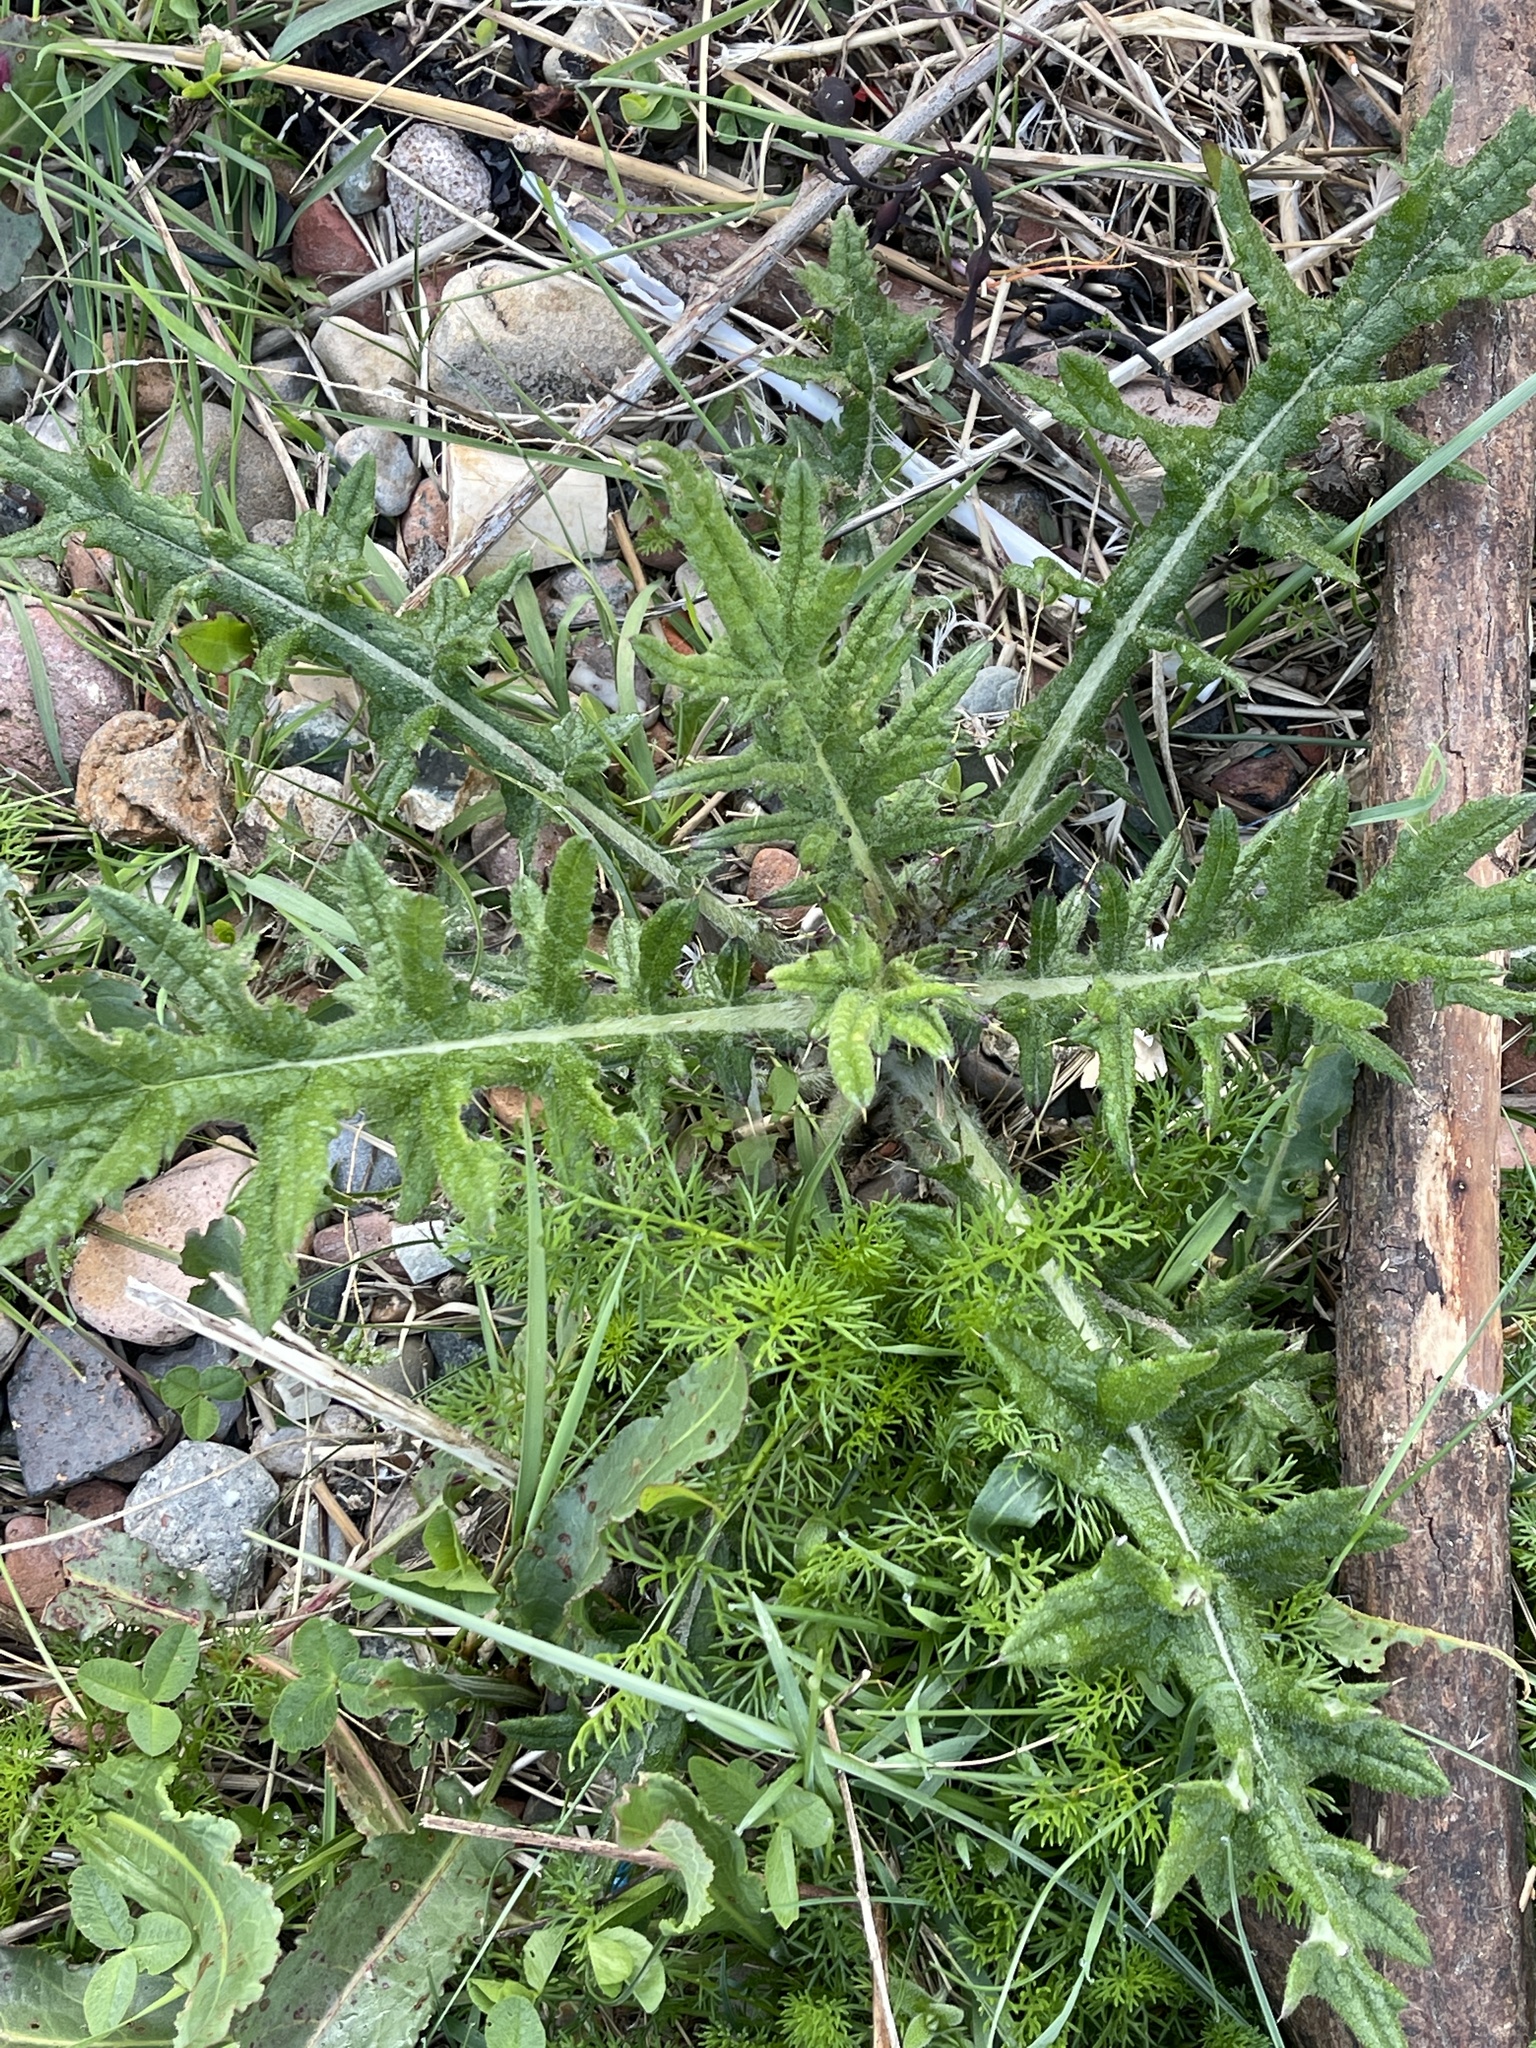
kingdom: Plantae
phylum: Tracheophyta
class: Magnoliopsida
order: Asterales
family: Asteraceae
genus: Cirsium
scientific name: Cirsium vulgare
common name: Bull thistle
